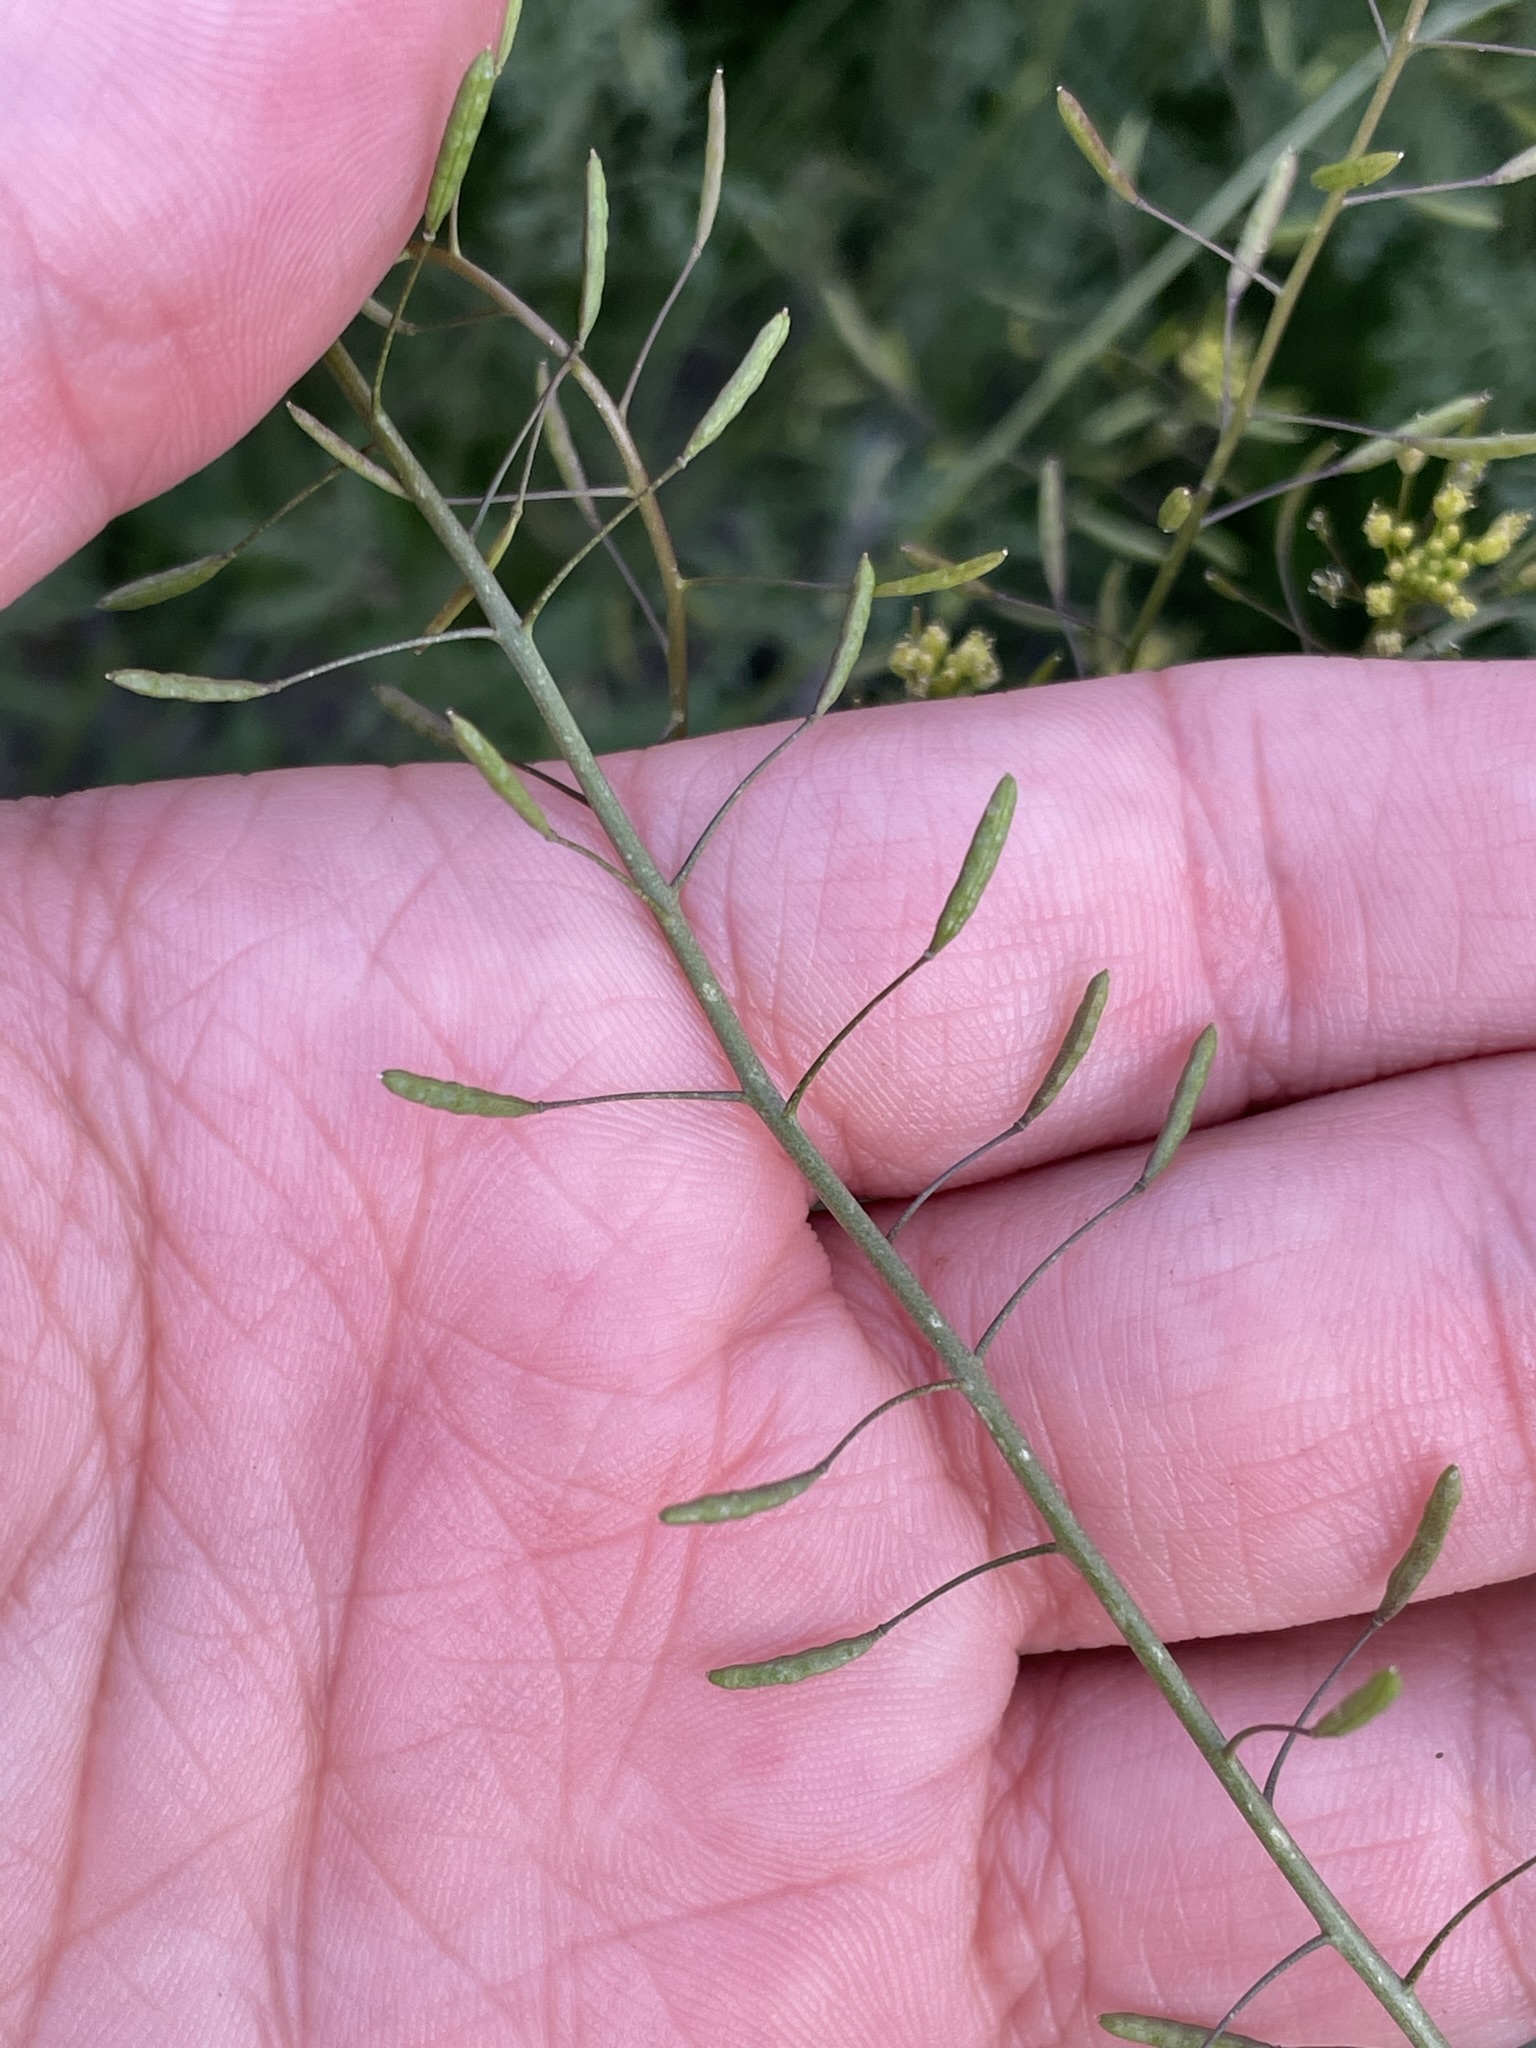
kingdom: Plantae
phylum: Tracheophyta
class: Magnoliopsida
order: Brassicales
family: Brassicaceae
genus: Descurainia
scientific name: Descurainia pinnata
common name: Western tansy mustard
